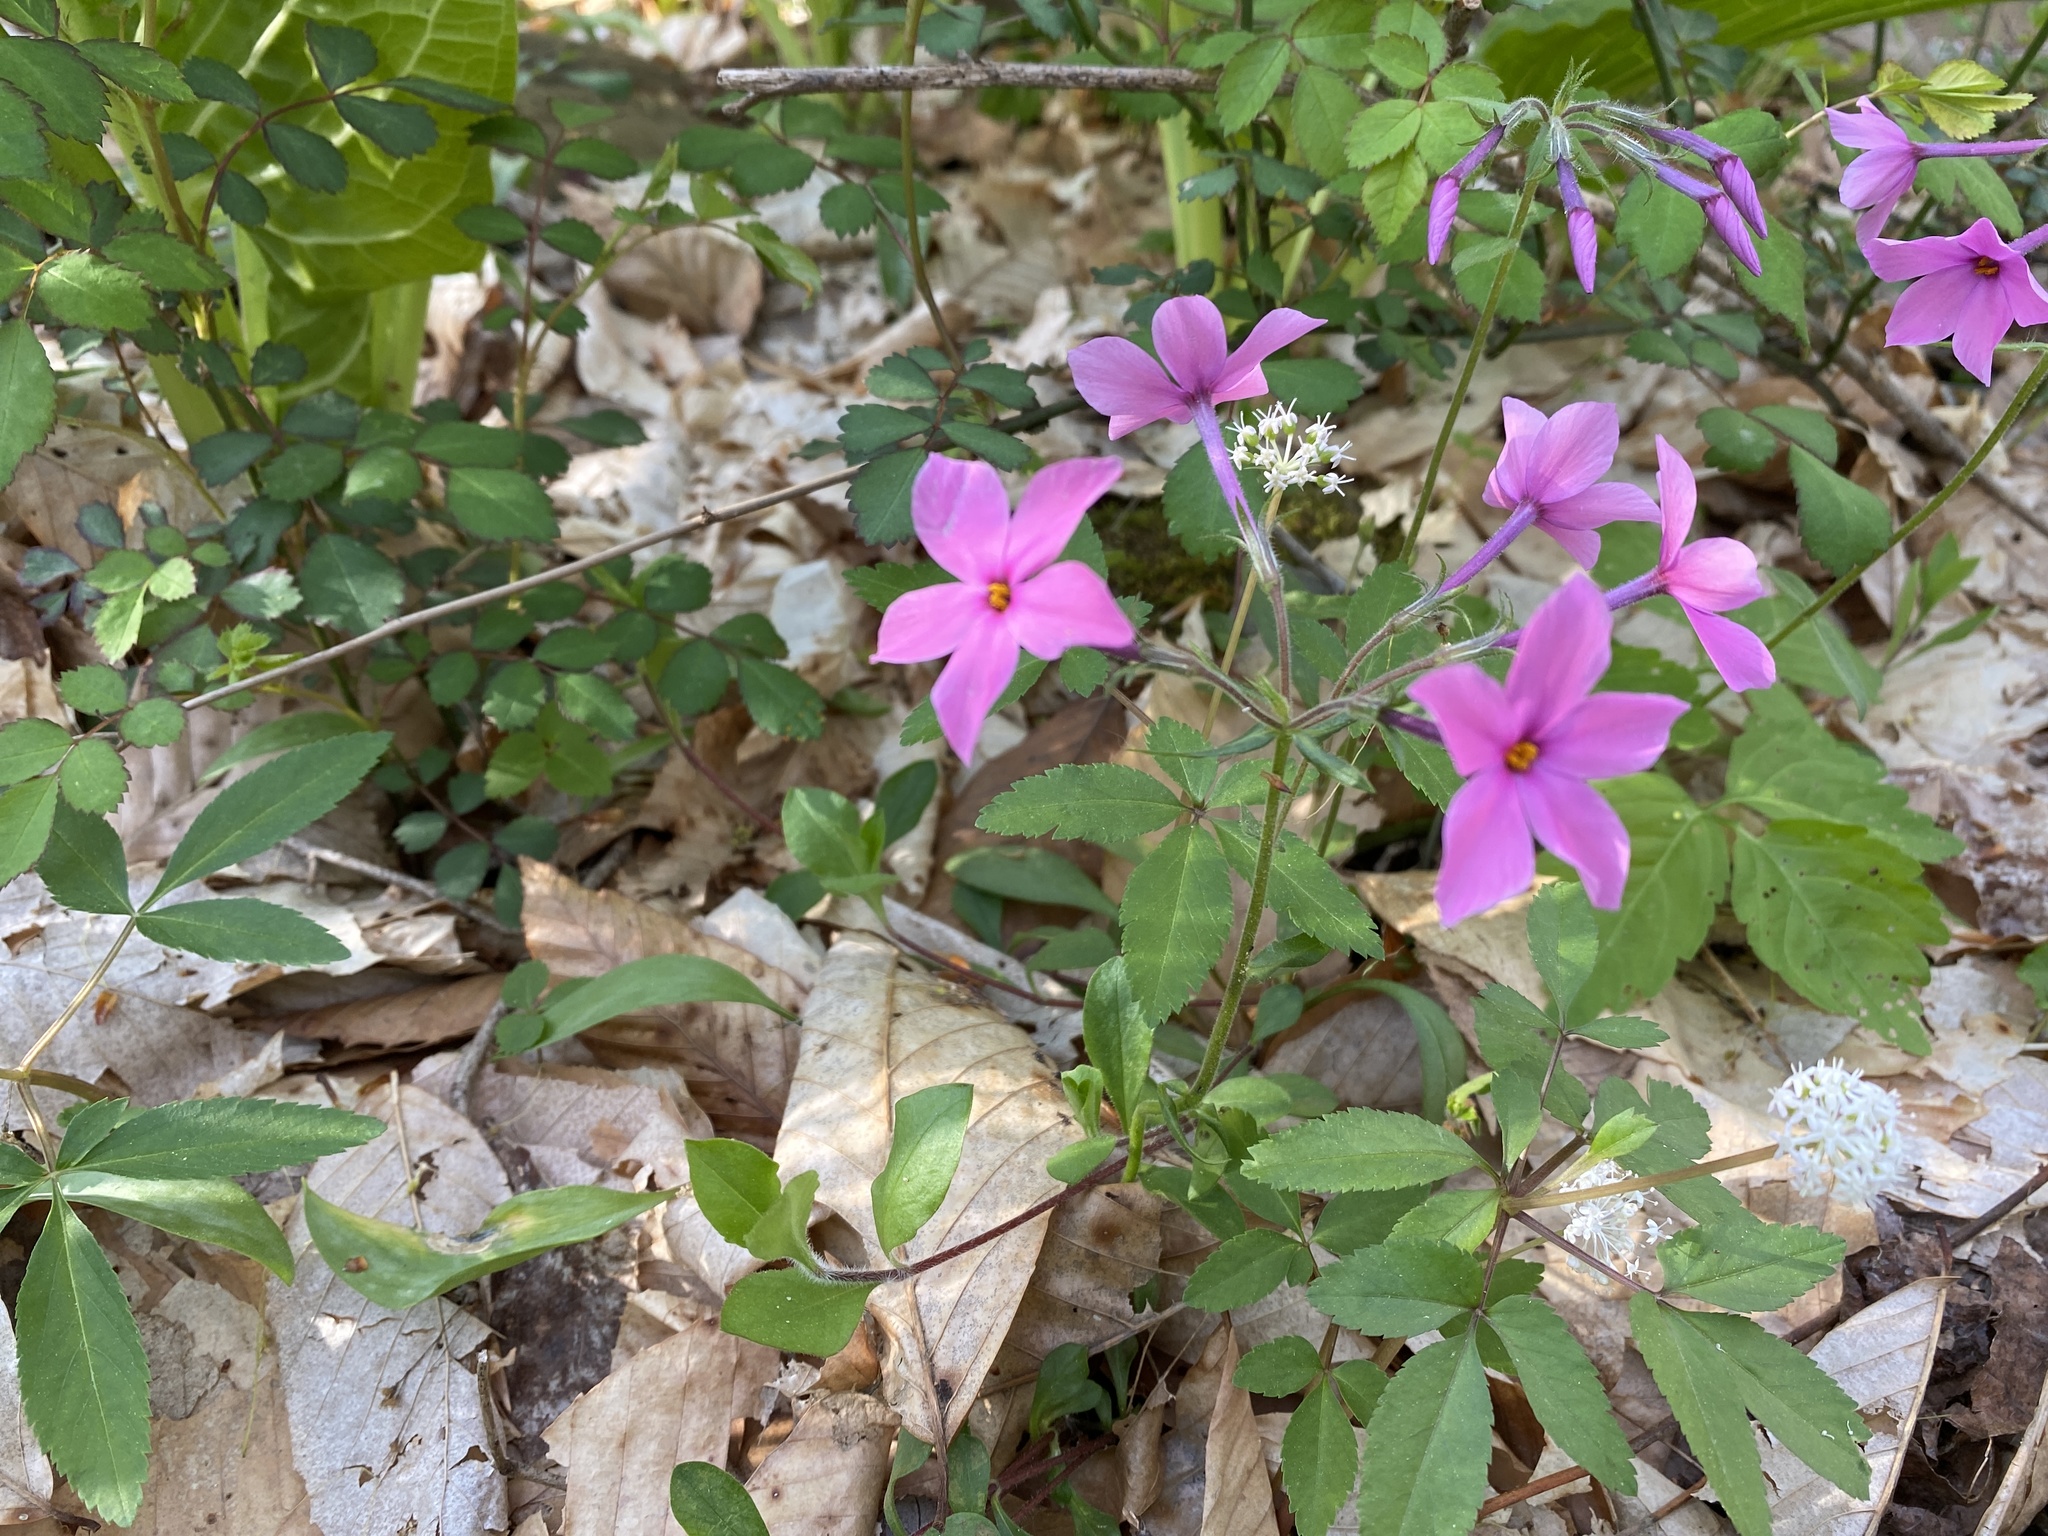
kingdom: Plantae
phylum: Tracheophyta
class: Magnoliopsida
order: Ericales
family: Polemoniaceae
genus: Phlox
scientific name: Phlox stolonifera
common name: Creeping phlox
